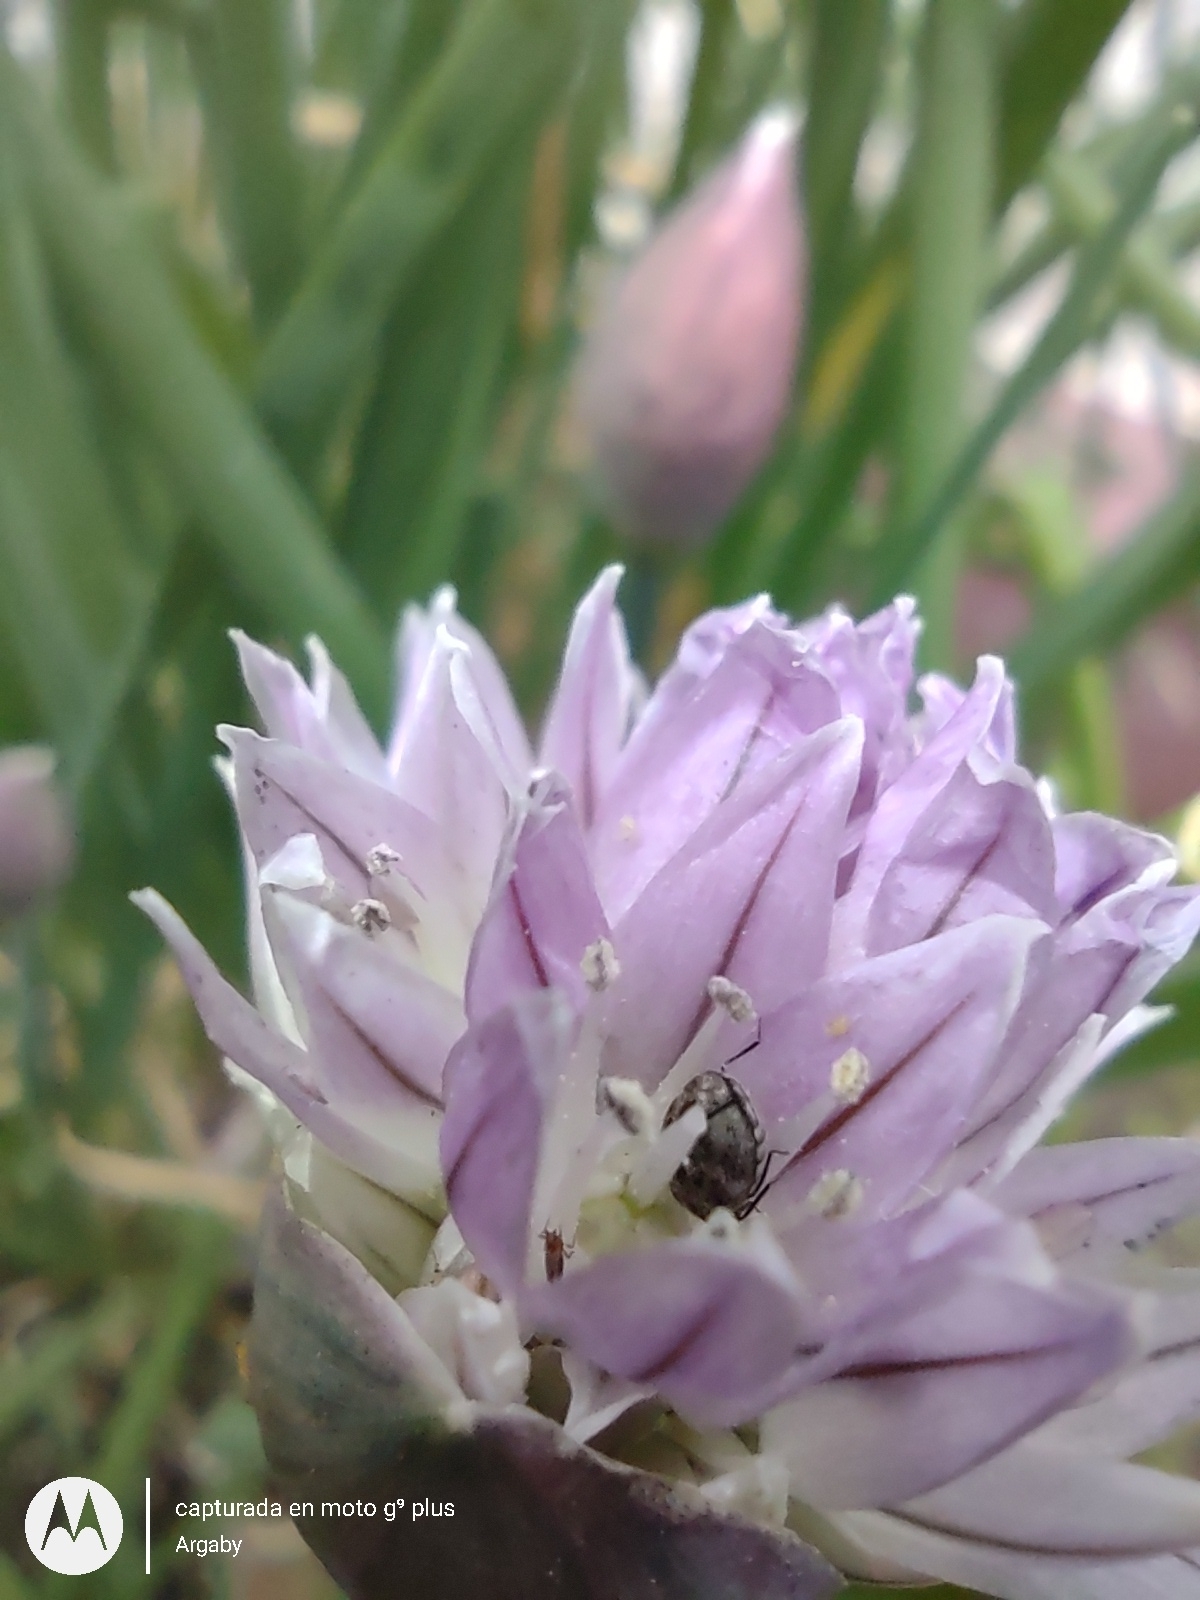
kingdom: Animalia
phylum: Arthropoda
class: Insecta
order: Coleoptera
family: Dermestidae
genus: Anthrenus
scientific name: Anthrenus verbasci
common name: Varied carpet beetle
